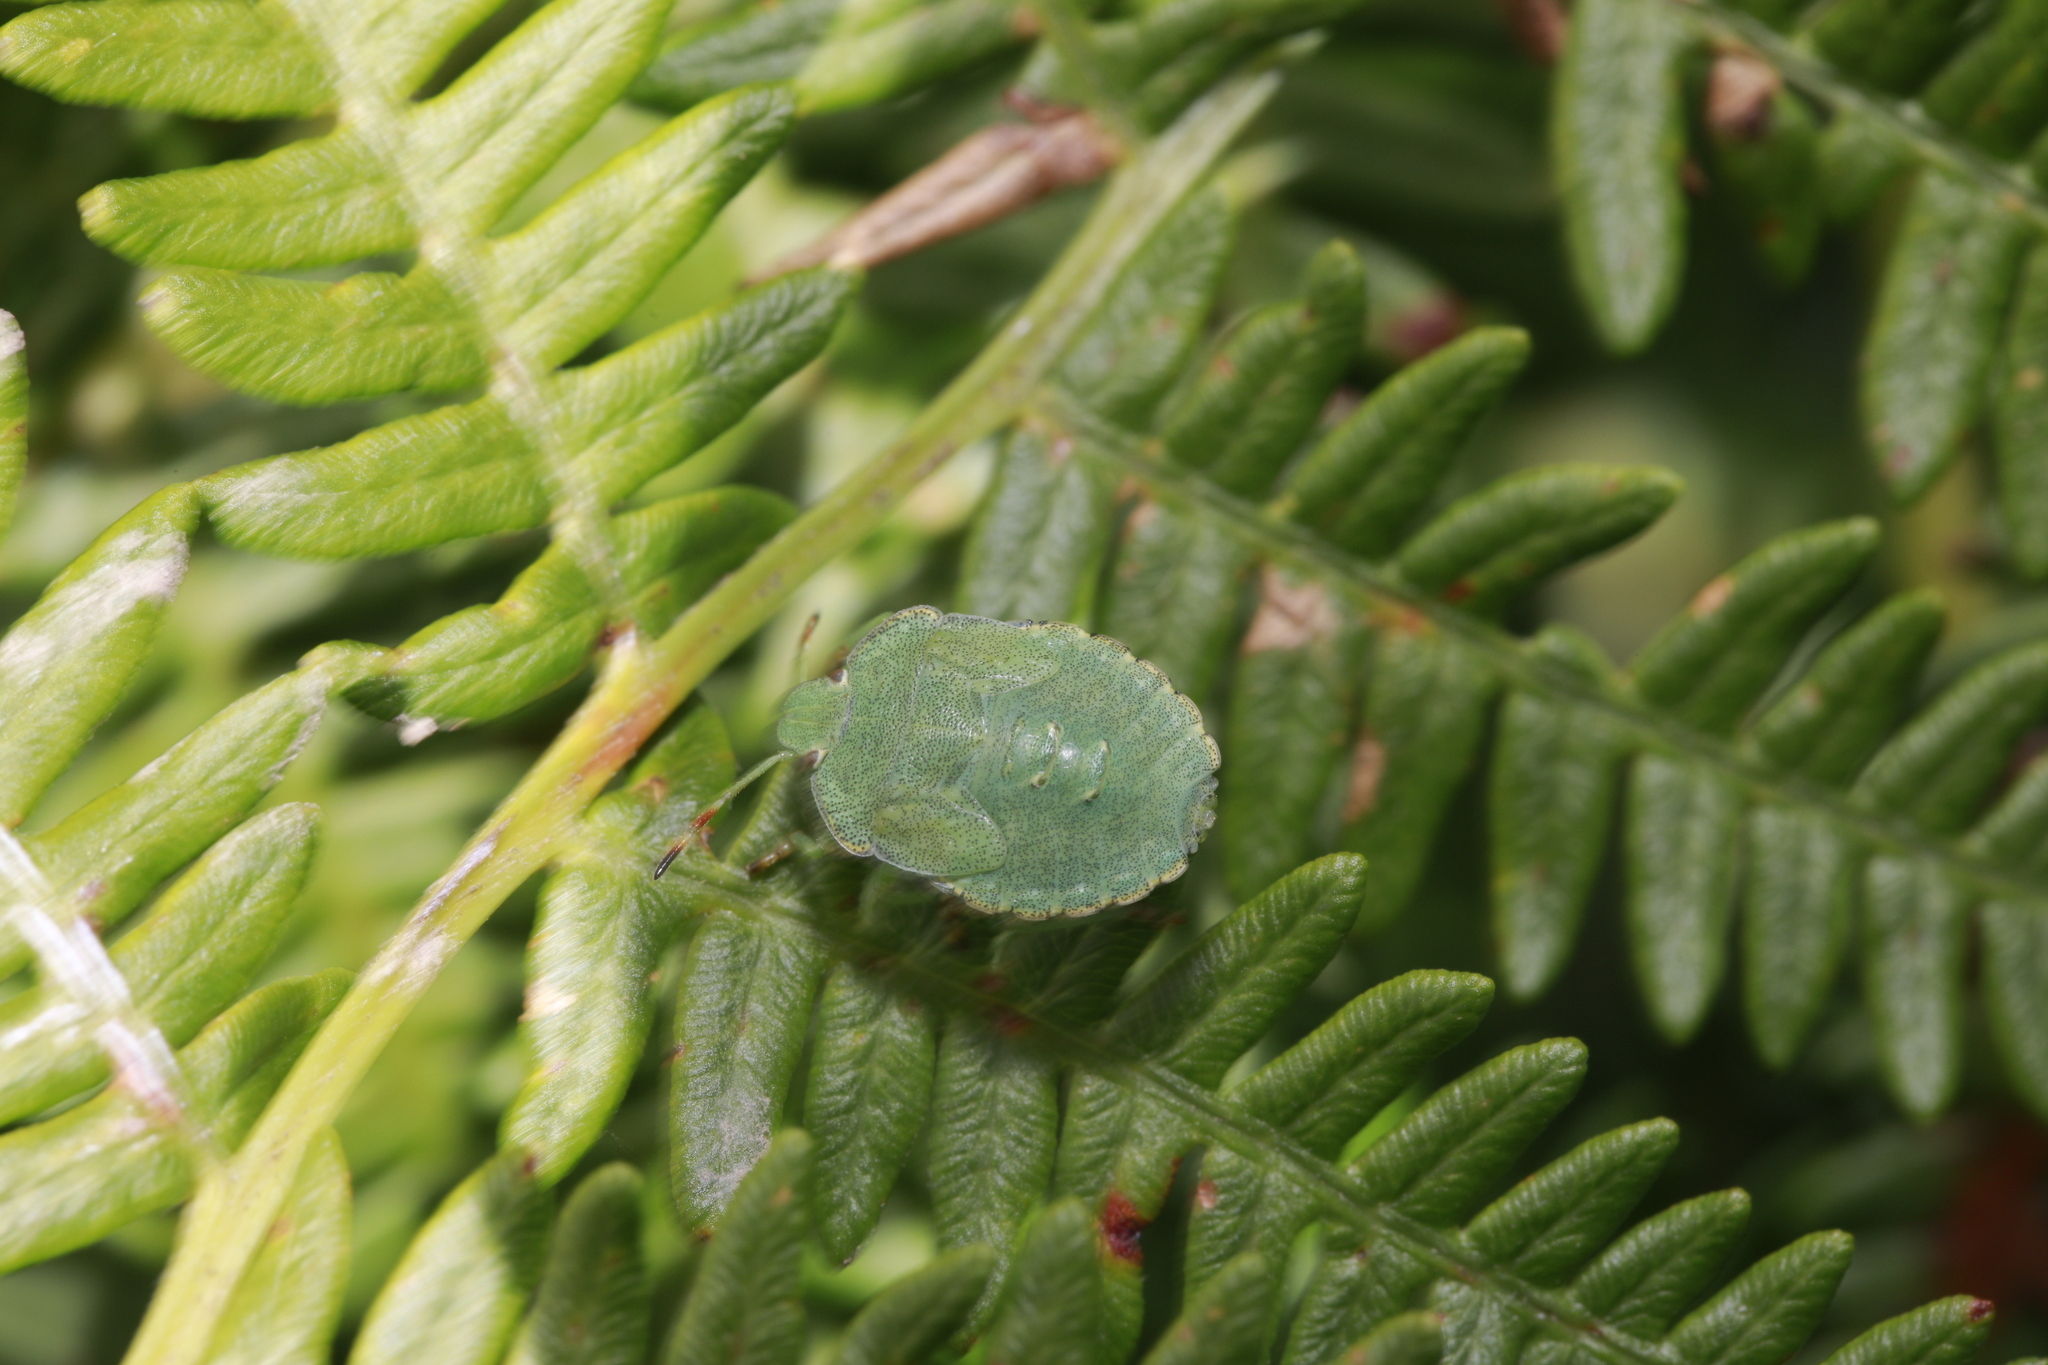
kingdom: Animalia
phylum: Arthropoda
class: Insecta
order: Hemiptera
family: Pentatomidae
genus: Palomena
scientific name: Palomena prasina
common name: Green shieldbug
